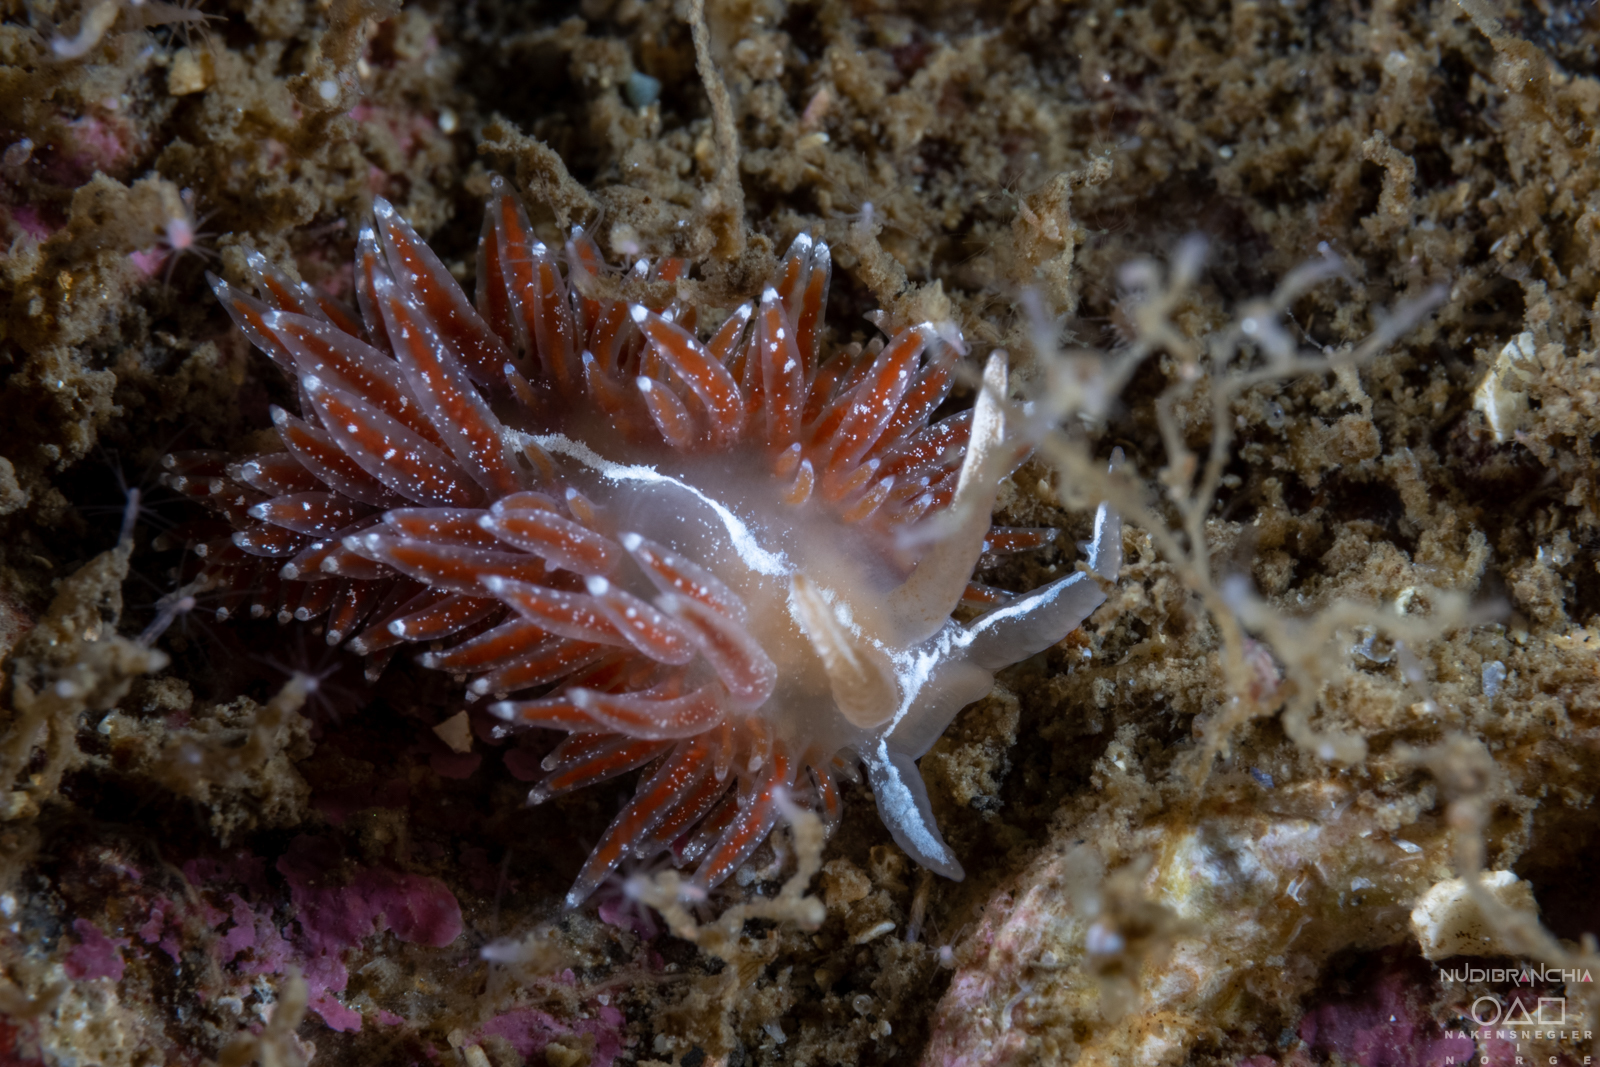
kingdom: Animalia
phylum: Mollusca
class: Gastropoda
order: Nudibranchia
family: Coryphellidae
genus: Coryphella
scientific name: Coryphella monicae
